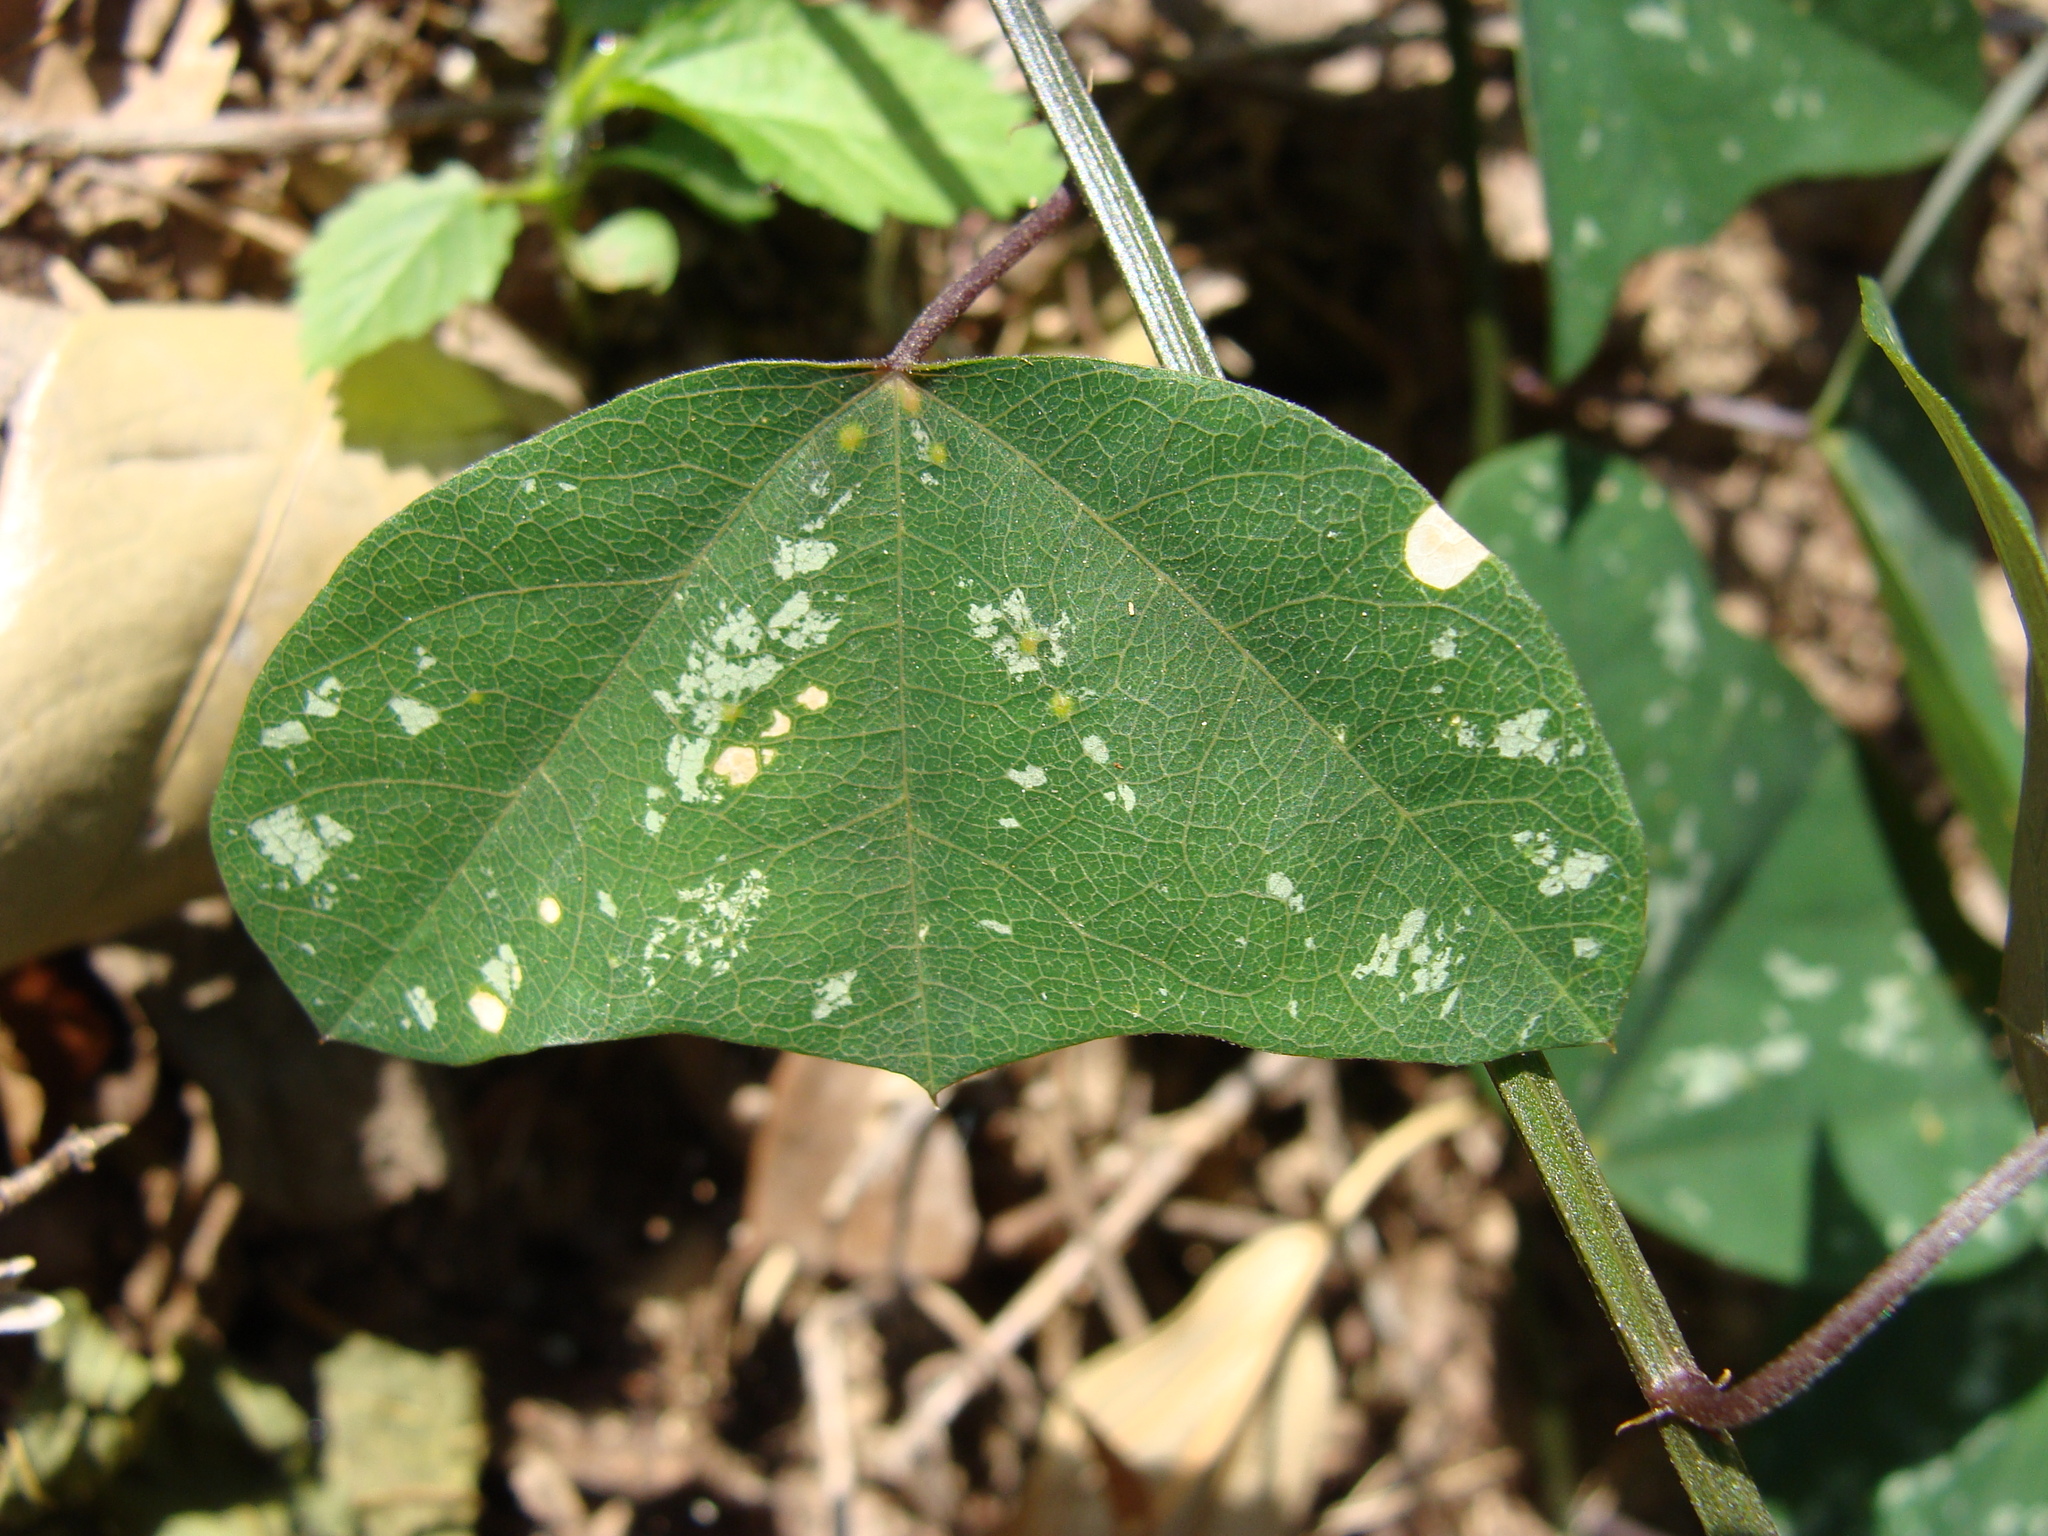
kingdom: Plantae
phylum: Tracheophyta
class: Magnoliopsida
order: Malpighiales
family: Passifloraceae
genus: Passiflora
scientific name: Passiflora biflora
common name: Twoflower passionflower
